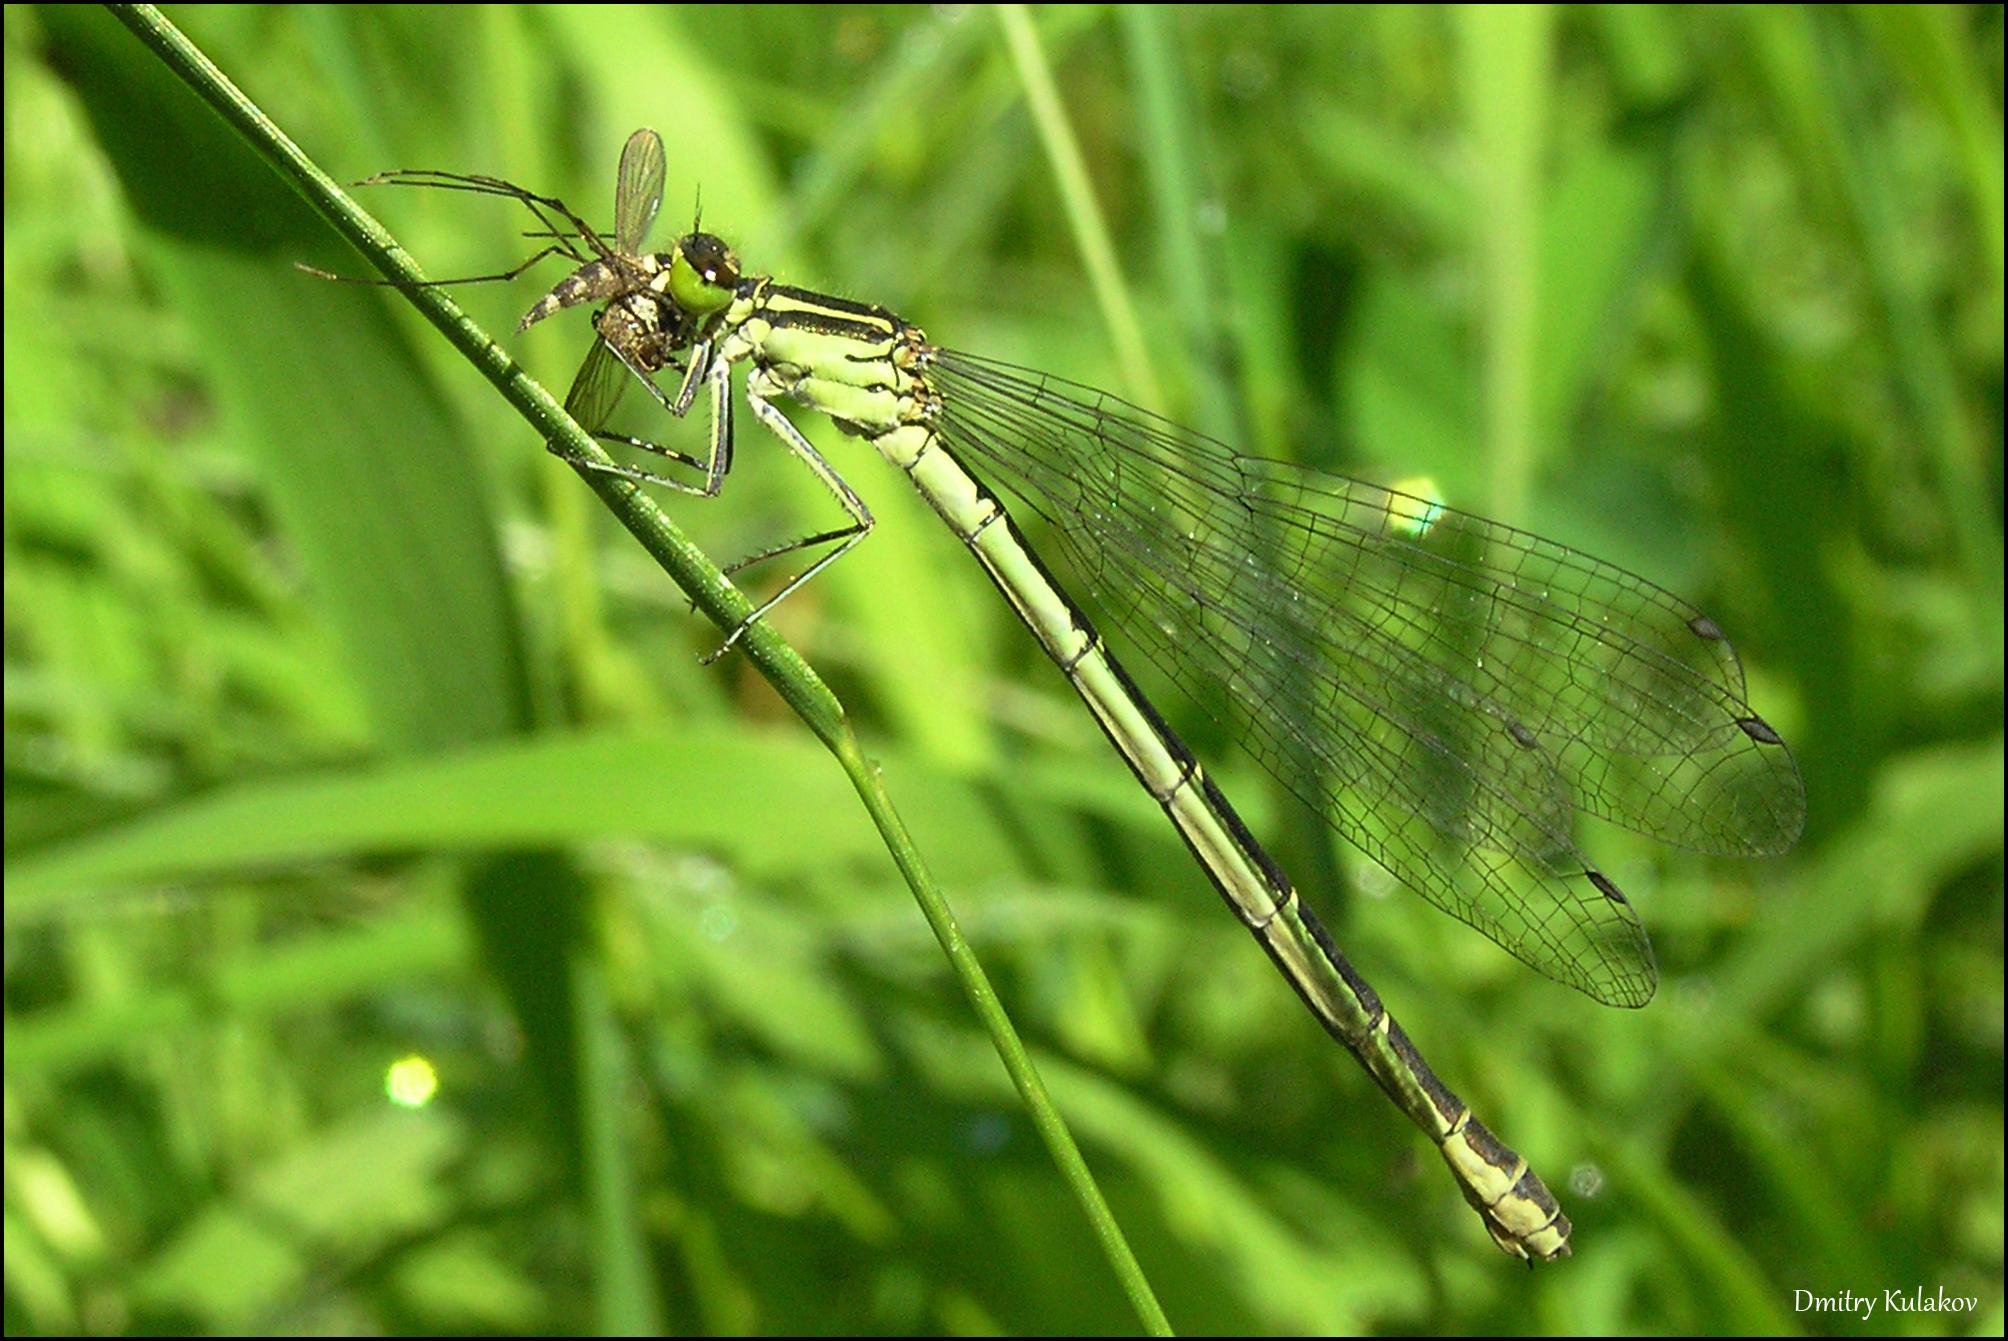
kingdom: Animalia
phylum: Arthropoda
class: Insecta
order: Odonata
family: Coenagrionidae
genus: Coenagrion
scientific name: Coenagrion hastulatum
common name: Spearhead bluet
